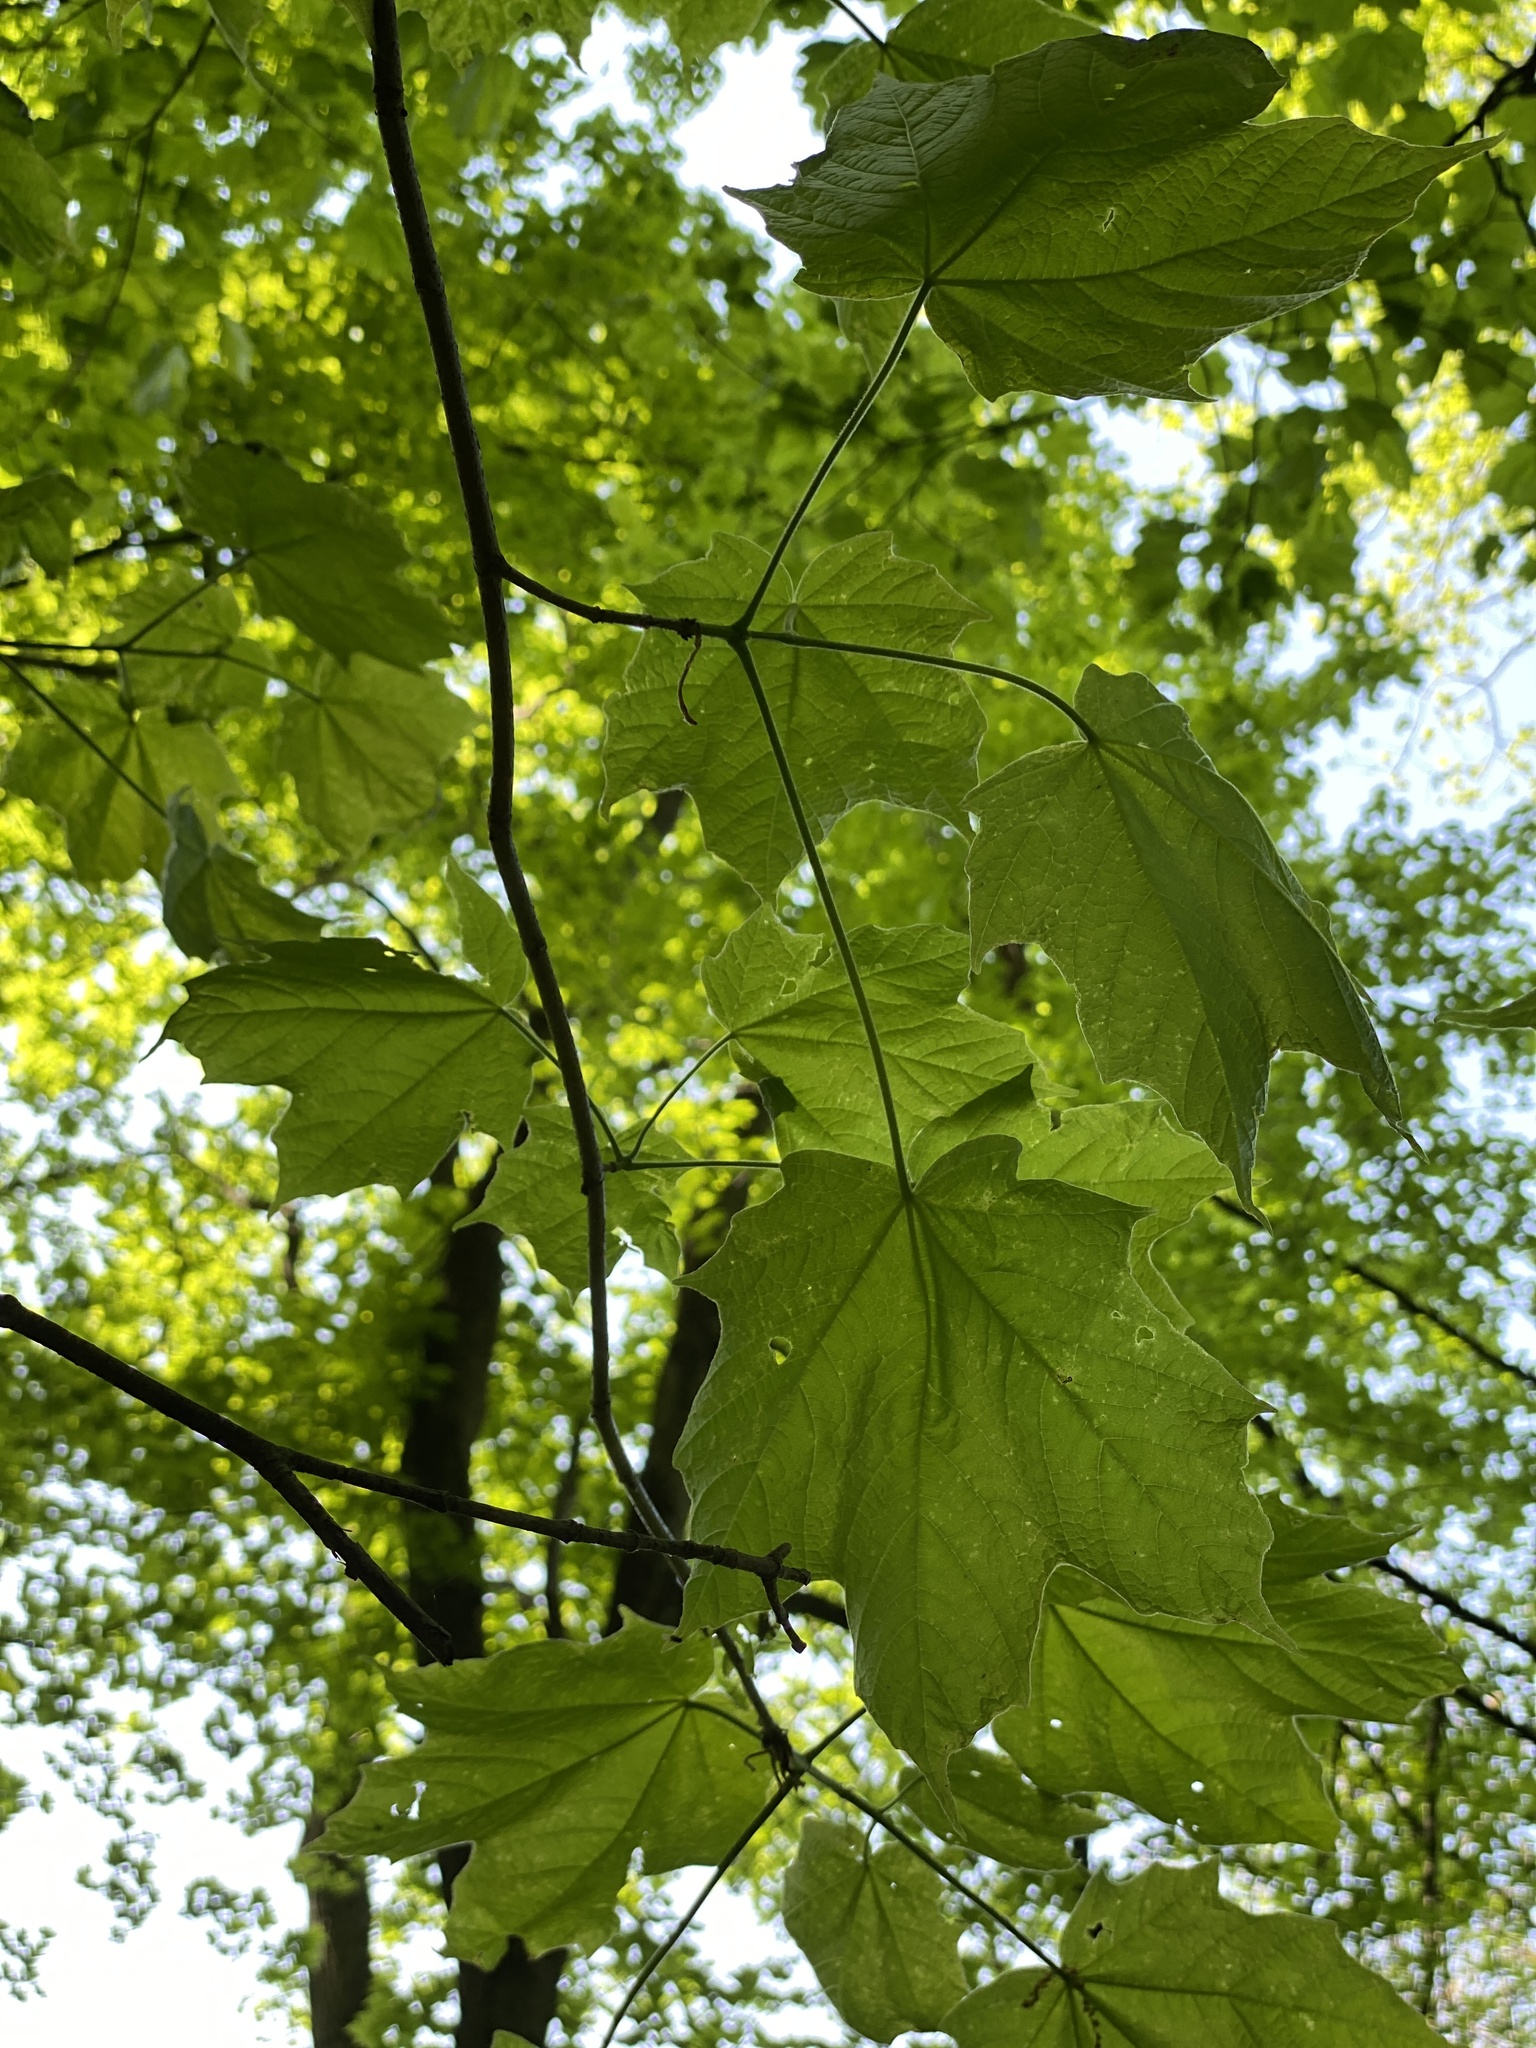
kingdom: Plantae
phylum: Tracheophyta
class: Magnoliopsida
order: Sapindales
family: Sapindaceae
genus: Acer
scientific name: Acer nigrum
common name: Black maple
